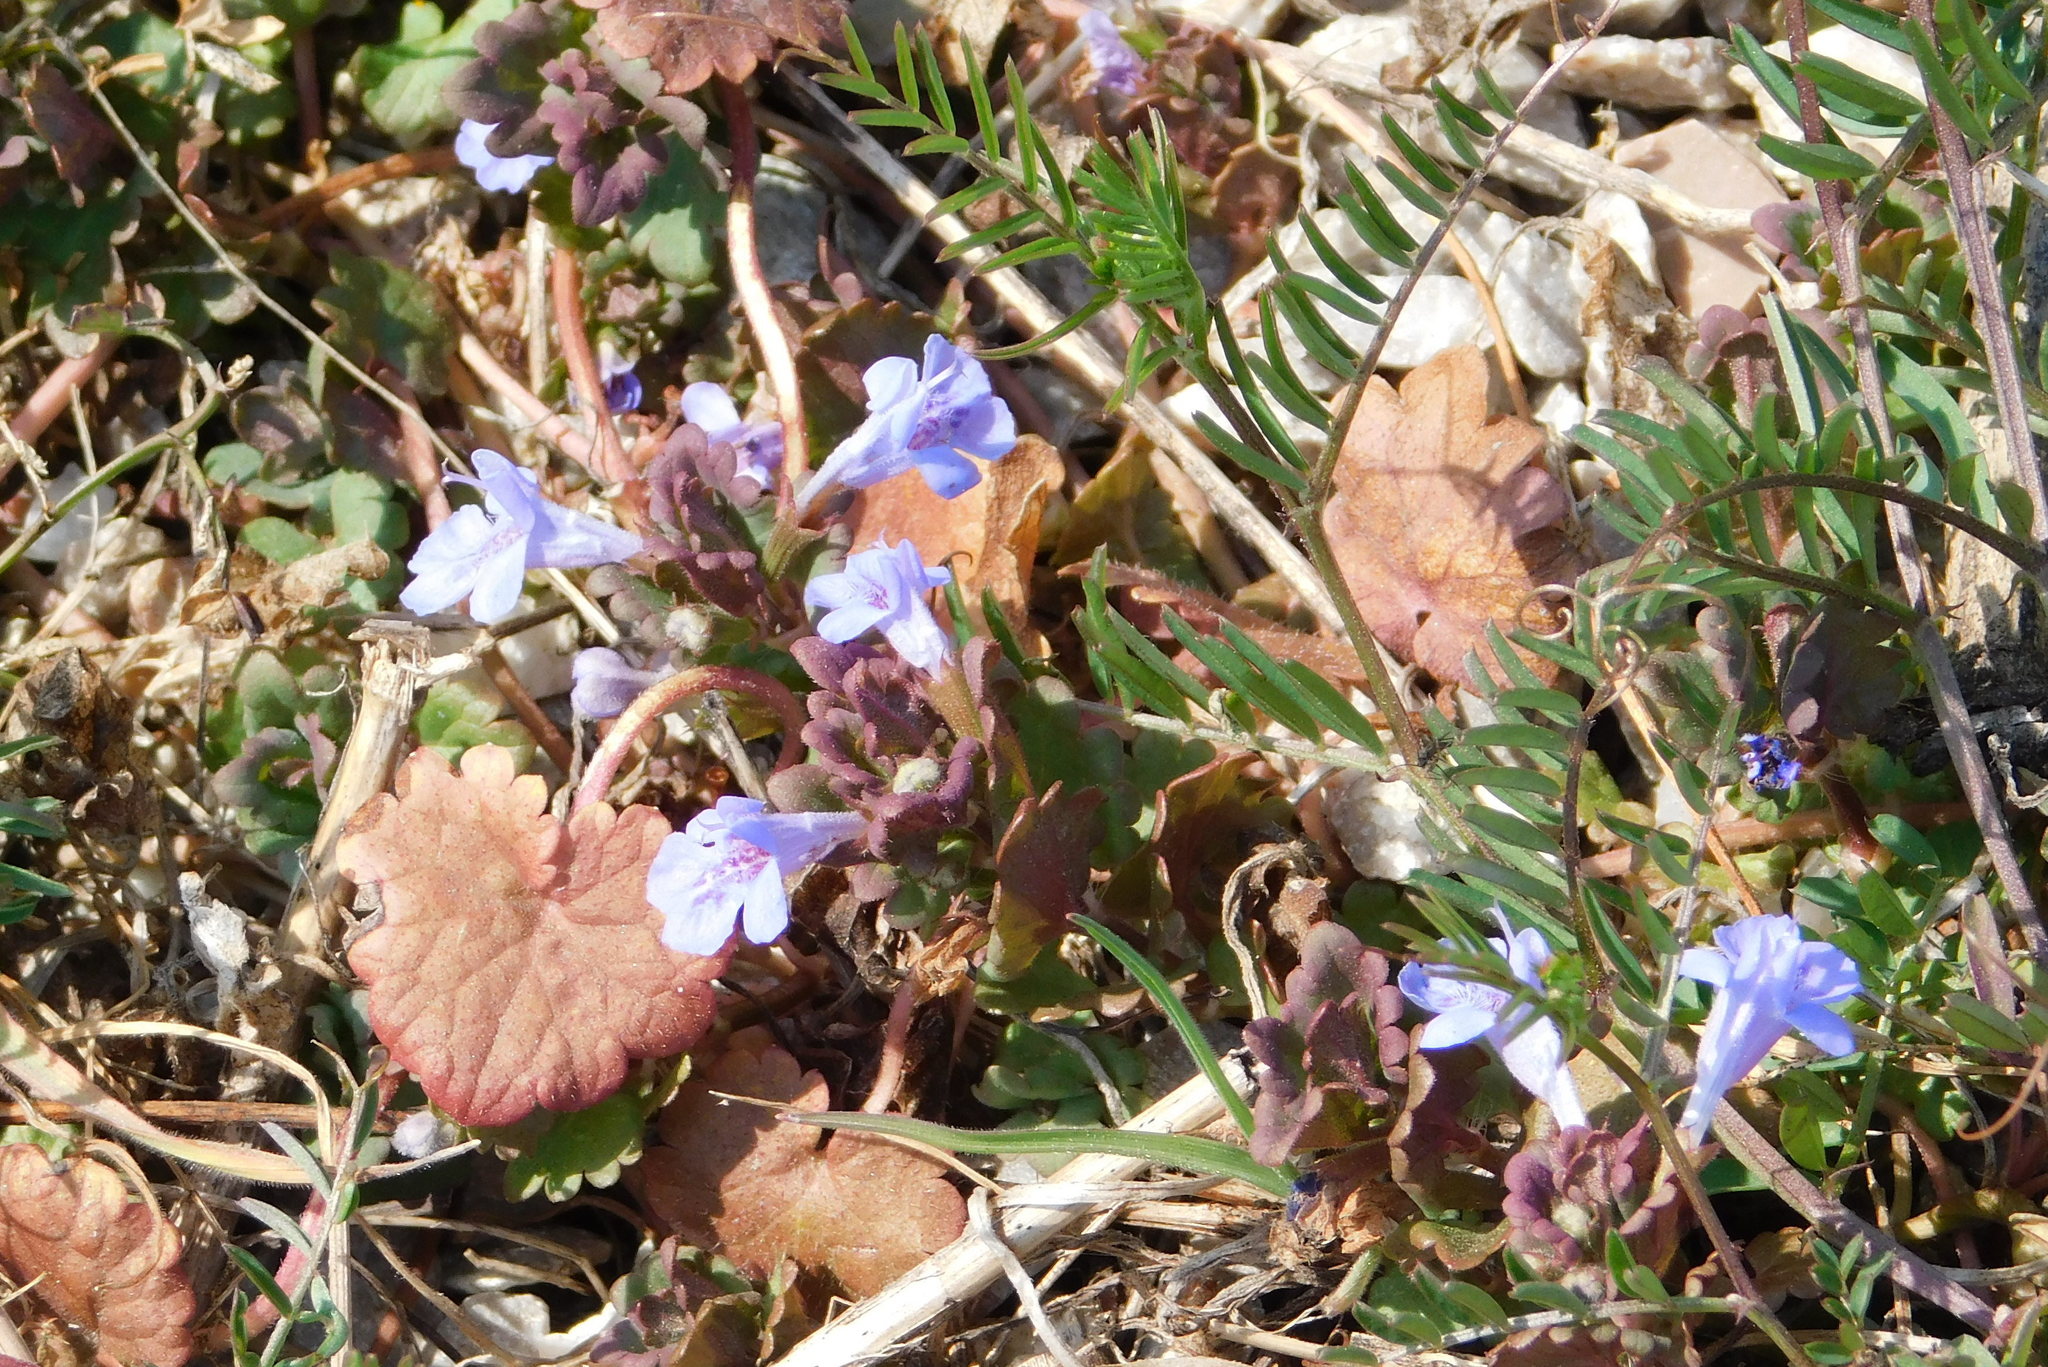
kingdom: Plantae
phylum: Tracheophyta
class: Magnoliopsida
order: Lamiales
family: Lamiaceae
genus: Glechoma
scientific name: Glechoma hederacea
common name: Ground ivy
